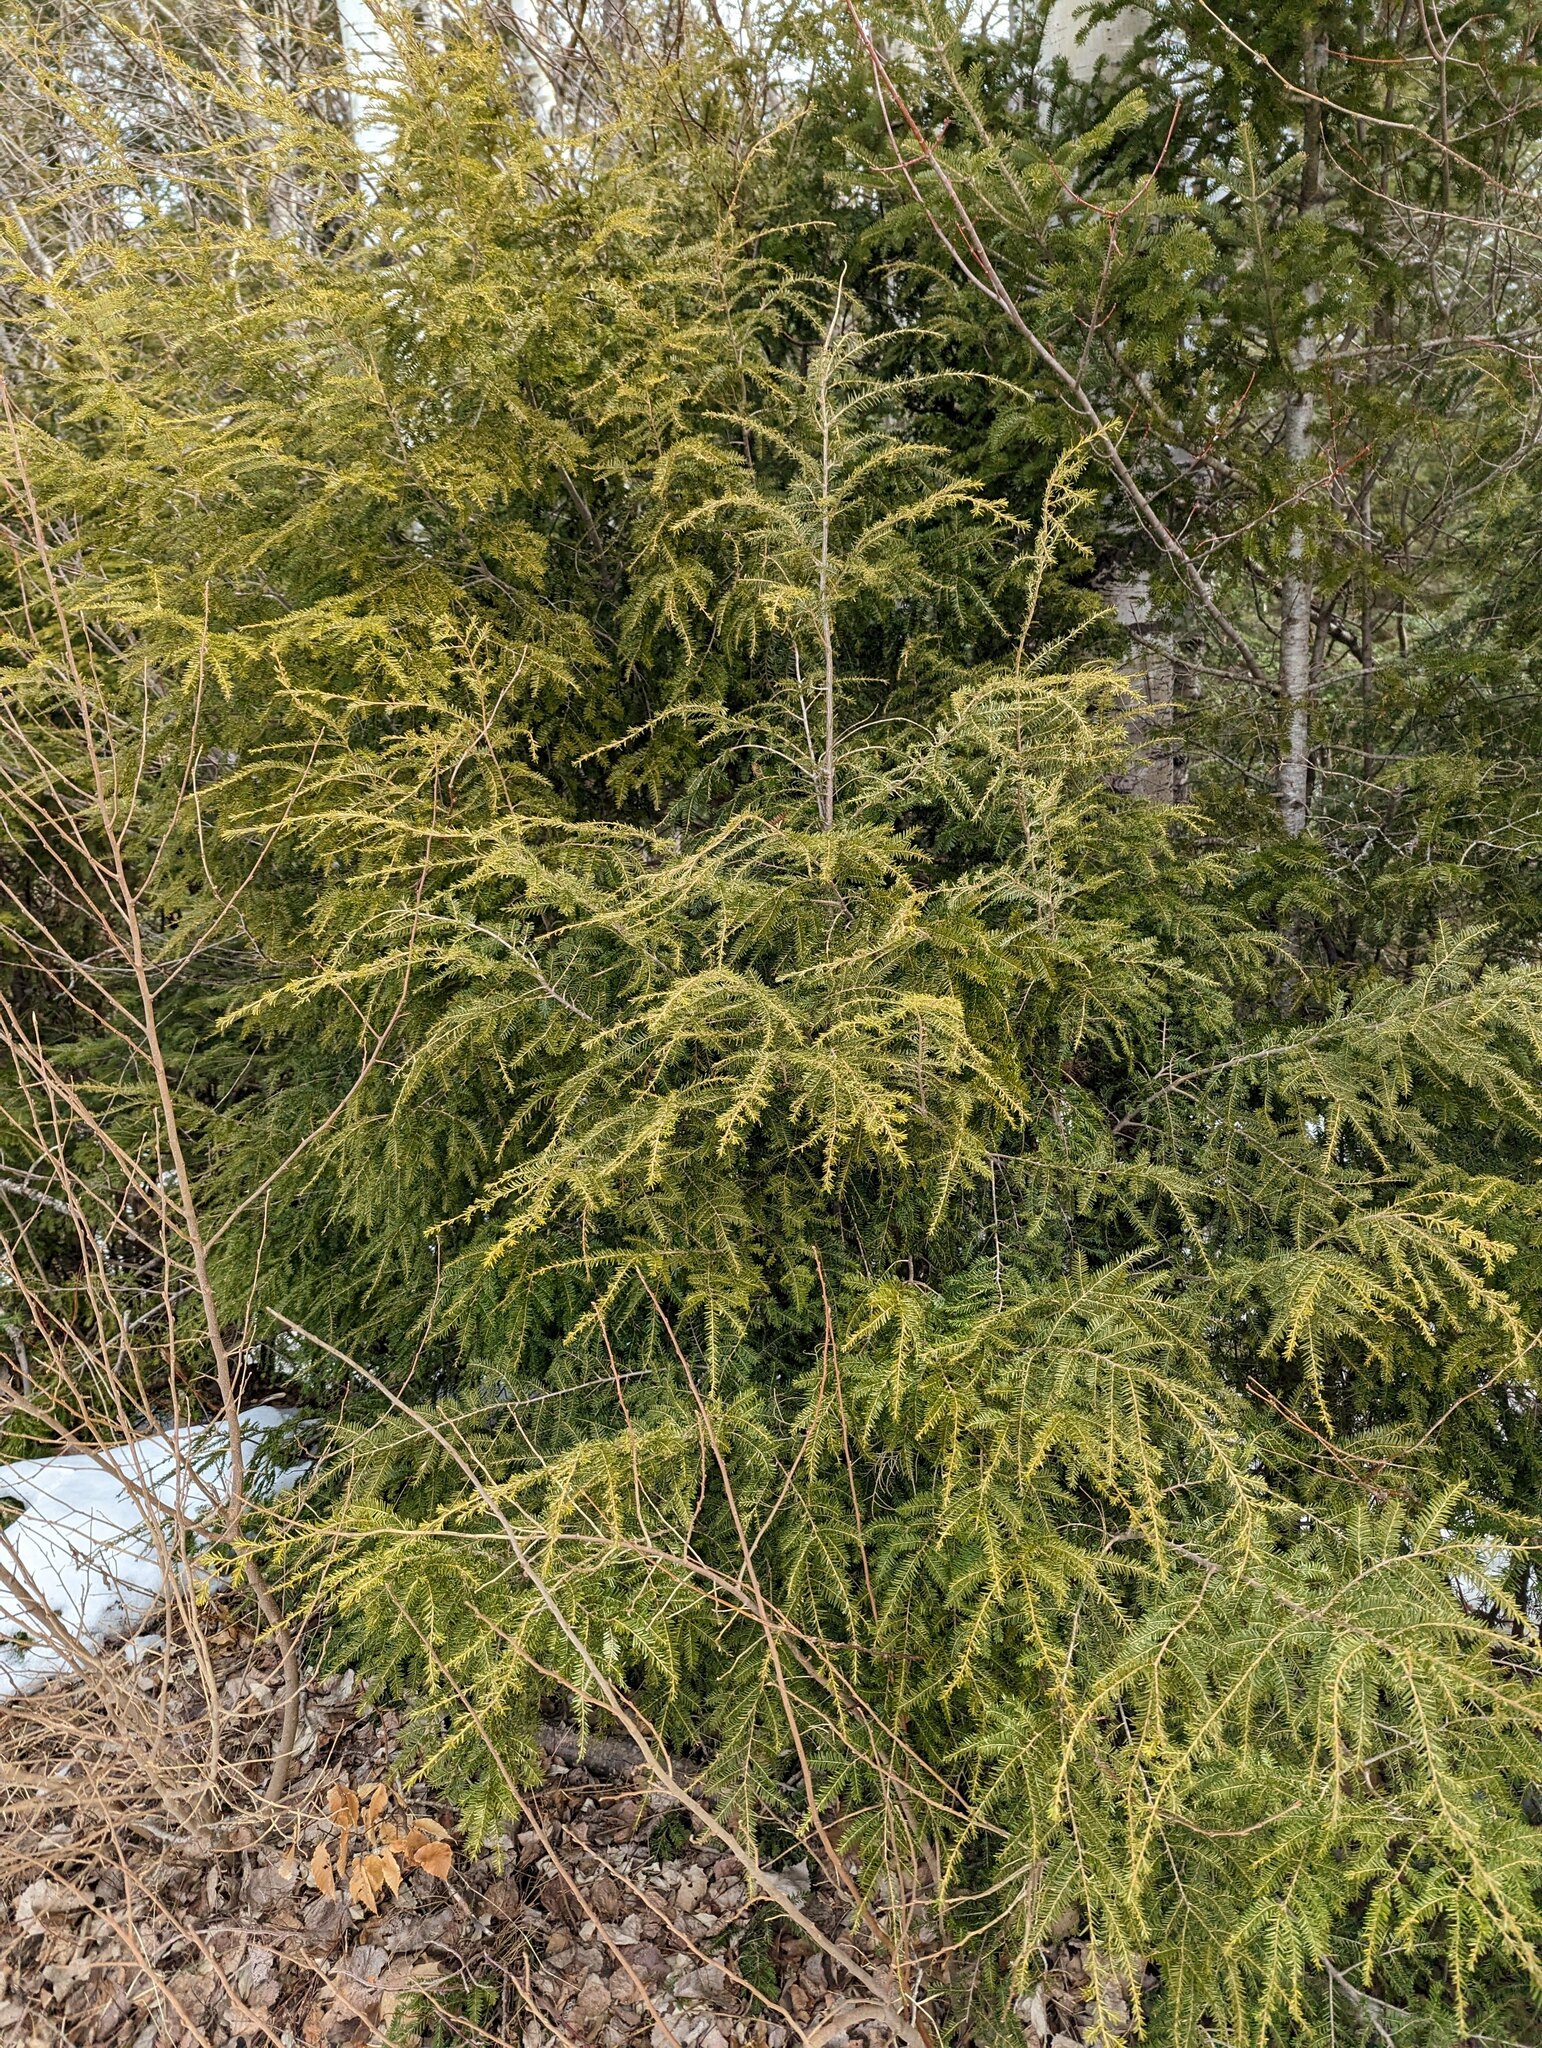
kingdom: Plantae
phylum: Tracheophyta
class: Pinopsida
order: Pinales
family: Pinaceae
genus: Tsuga
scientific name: Tsuga canadensis
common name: Eastern hemlock
